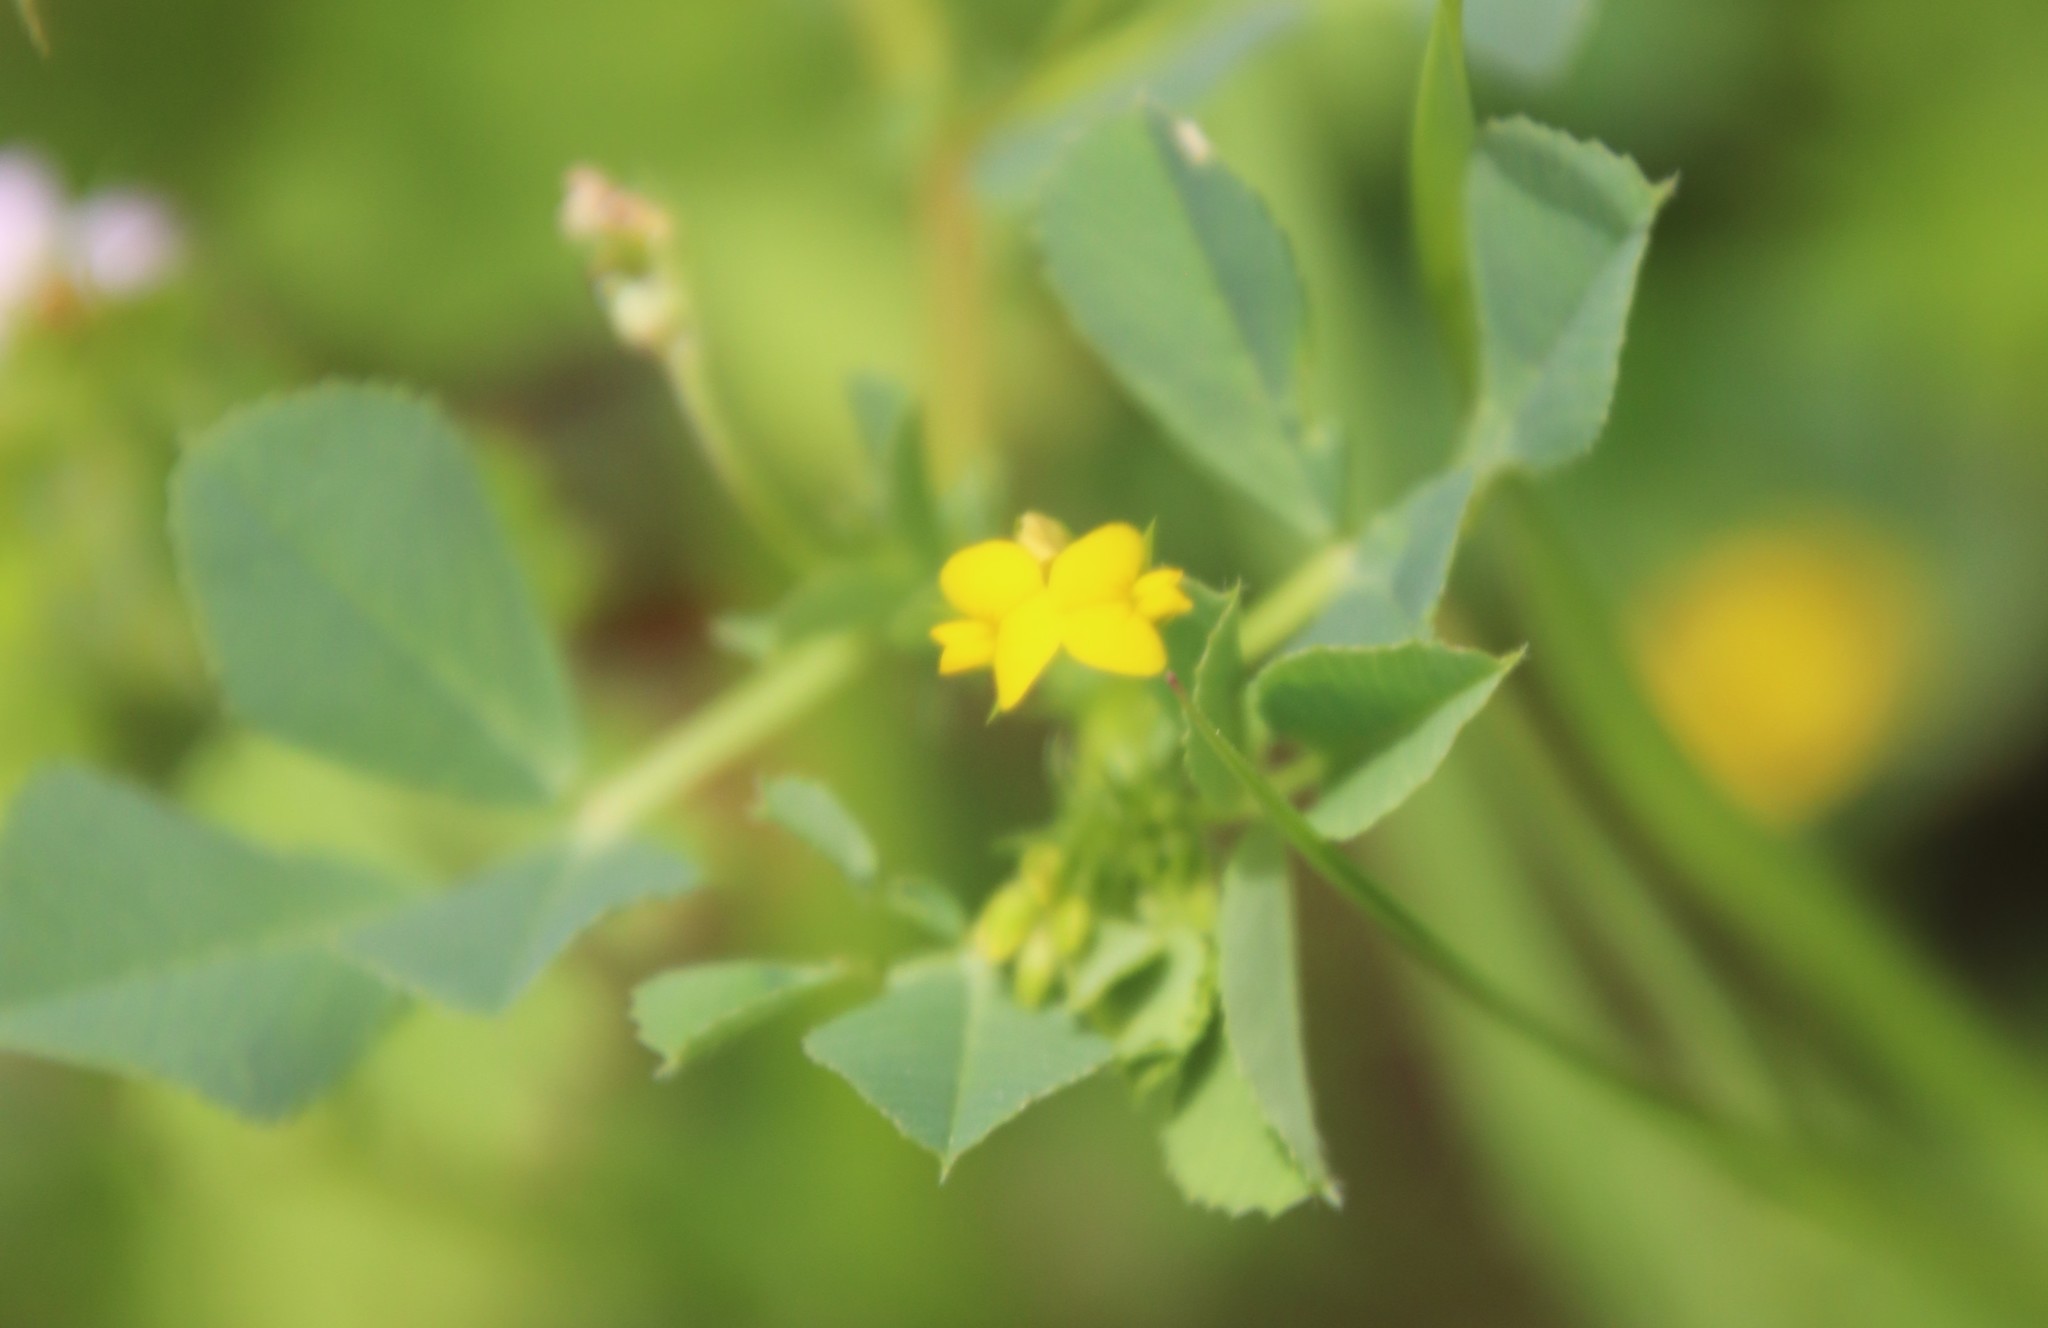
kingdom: Plantae
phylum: Tracheophyta
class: Magnoliopsida
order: Fabales
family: Fabaceae
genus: Medicago
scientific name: Medicago polymorpha
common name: Burclover
